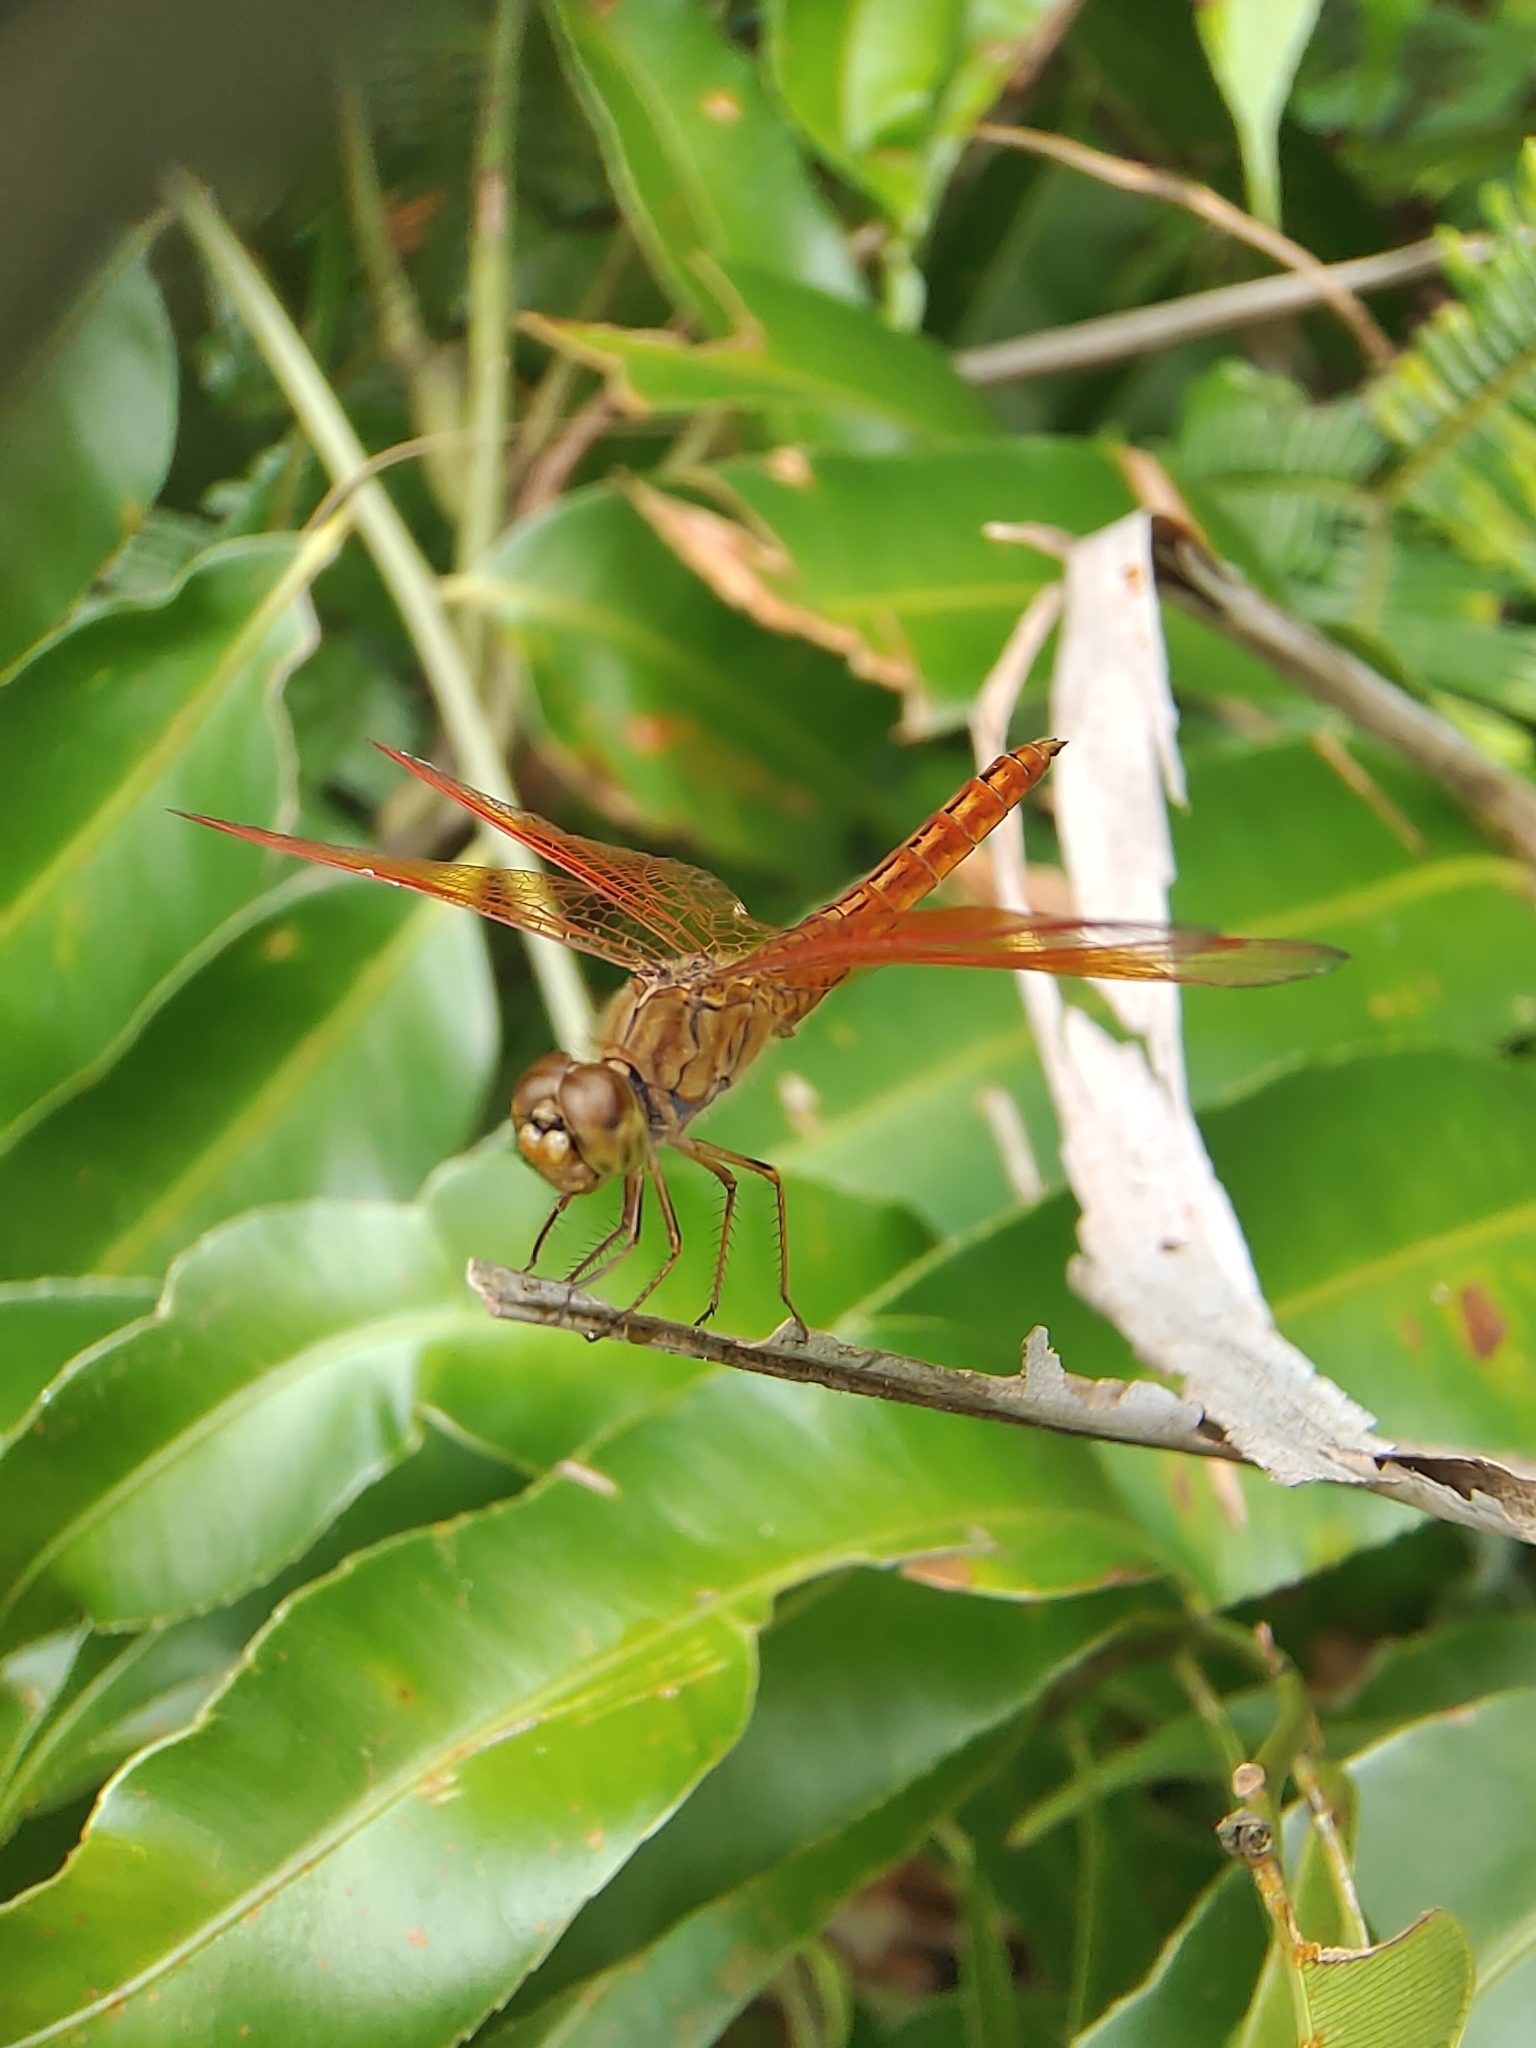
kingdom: Animalia
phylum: Arthropoda
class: Insecta
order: Odonata
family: Libellulidae
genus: Brachythemis
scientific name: Brachythemis contaminata
